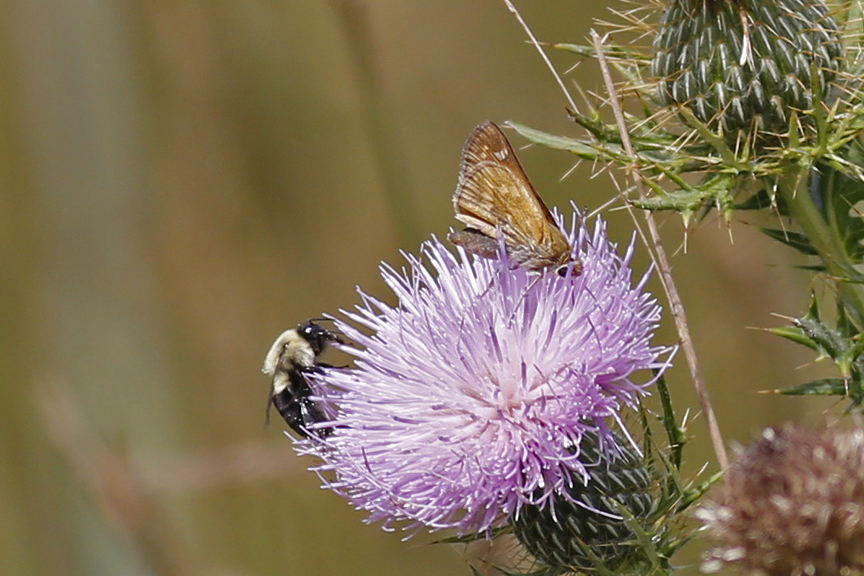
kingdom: Animalia
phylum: Arthropoda
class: Insecta
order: Lepidoptera
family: Hesperiidae
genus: Atalopedes
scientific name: Atalopedes
